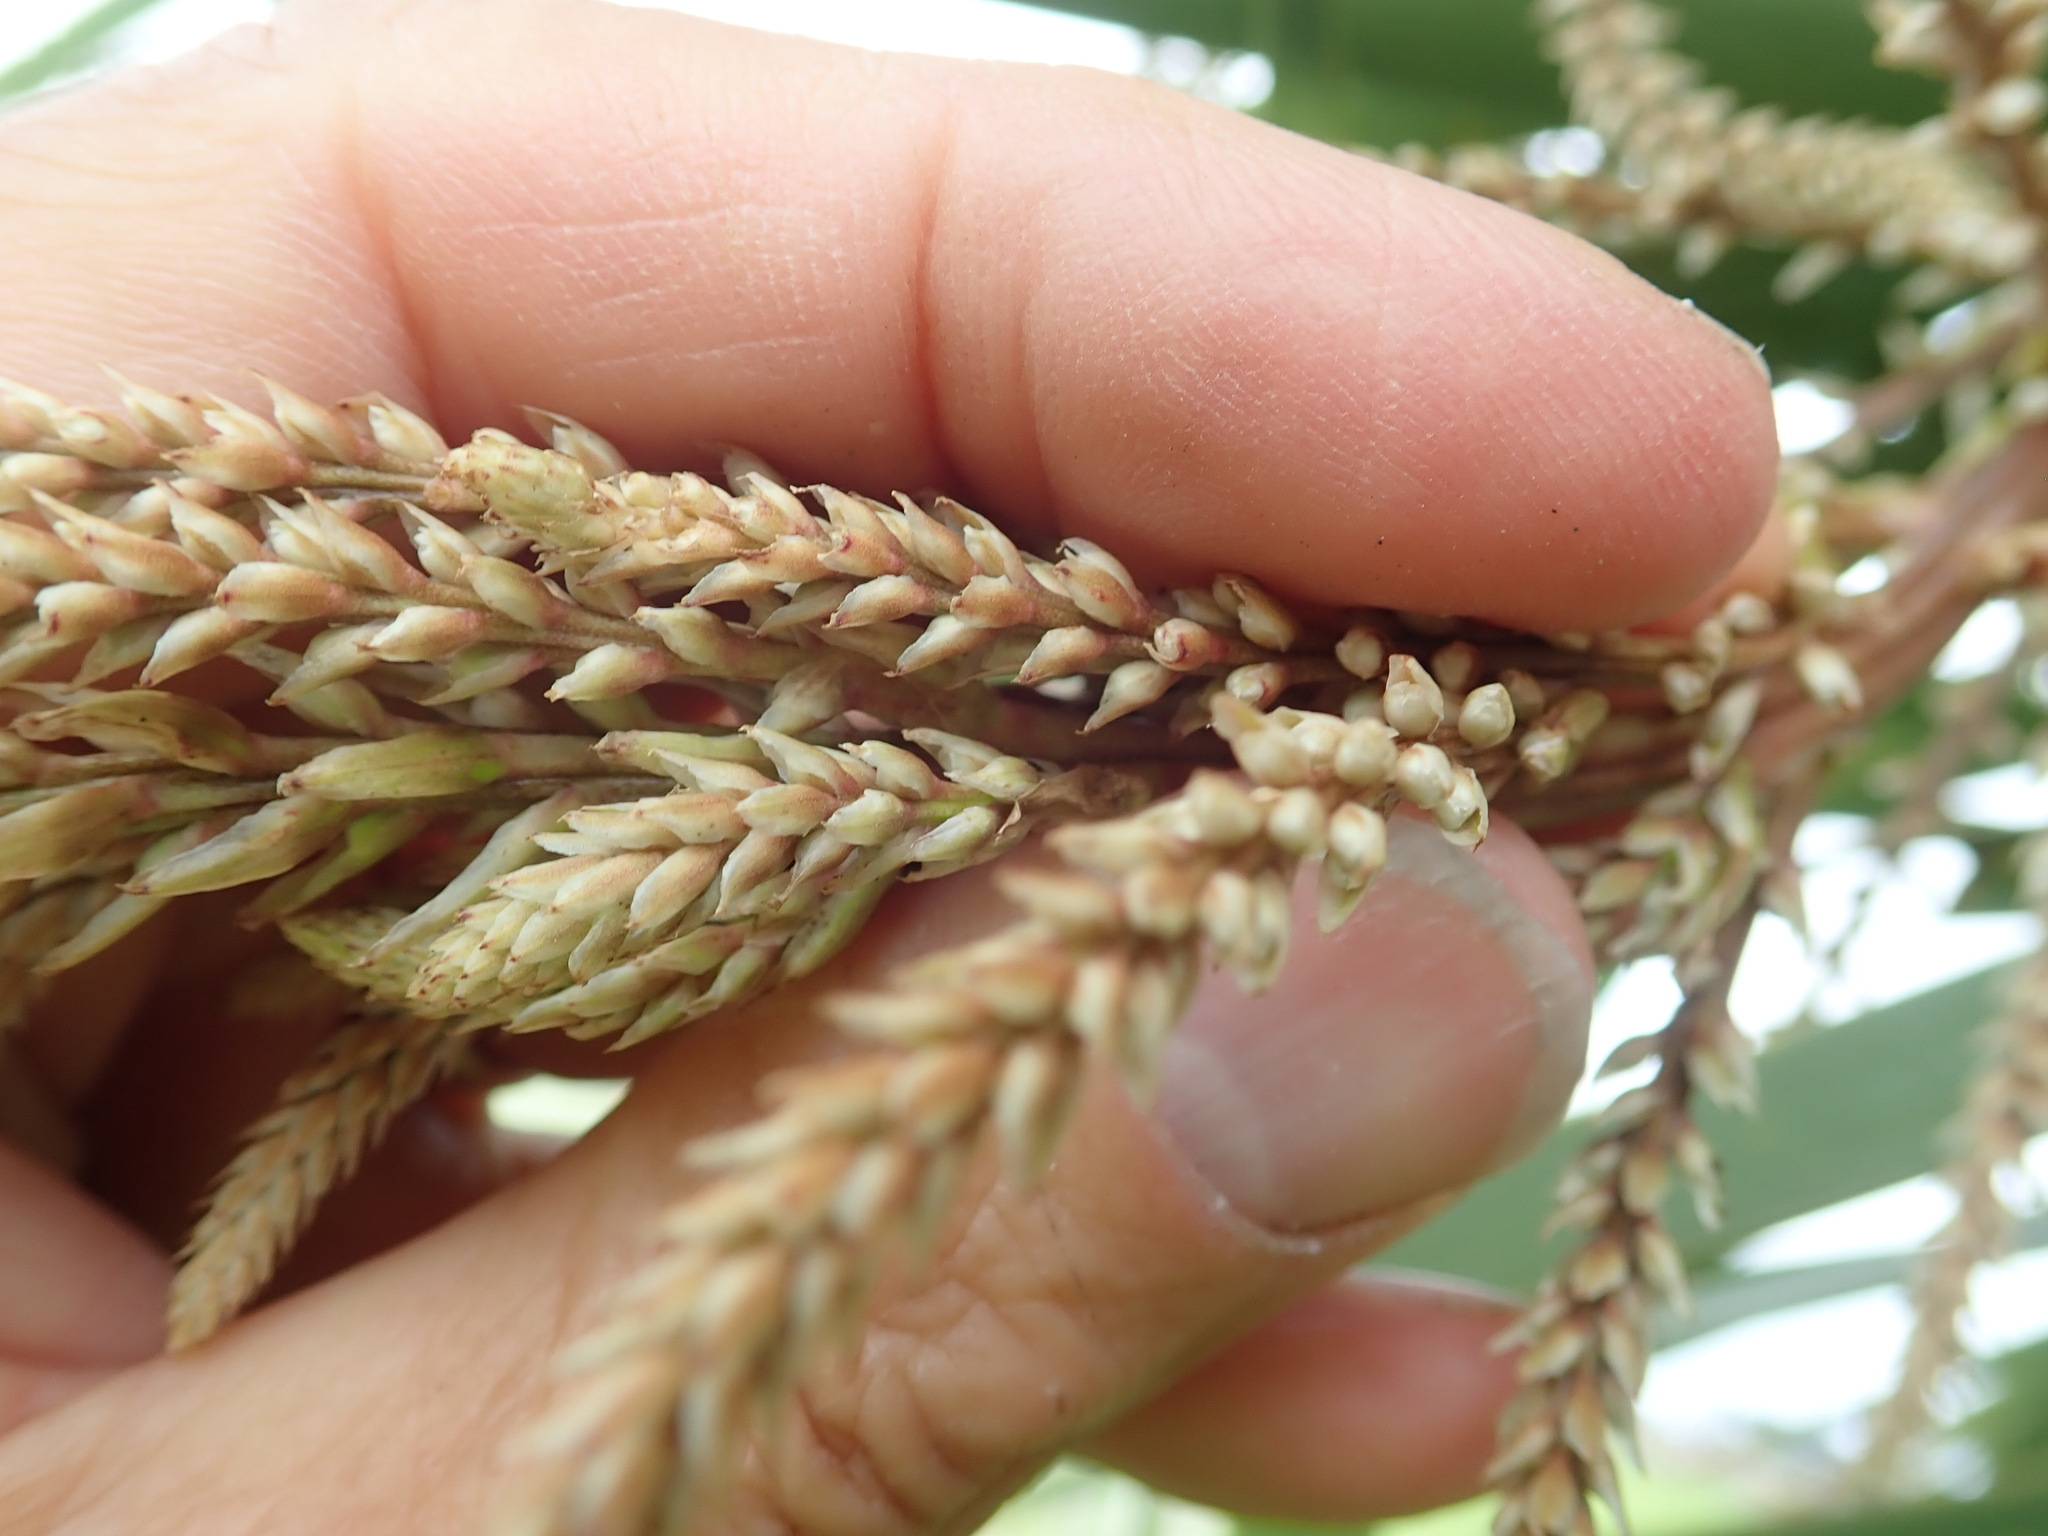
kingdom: Plantae
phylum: Tracheophyta
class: Liliopsida
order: Asparagales
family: Asparagaceae
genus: Cordyline
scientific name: Cordyline australis
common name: Cabbage-palm
